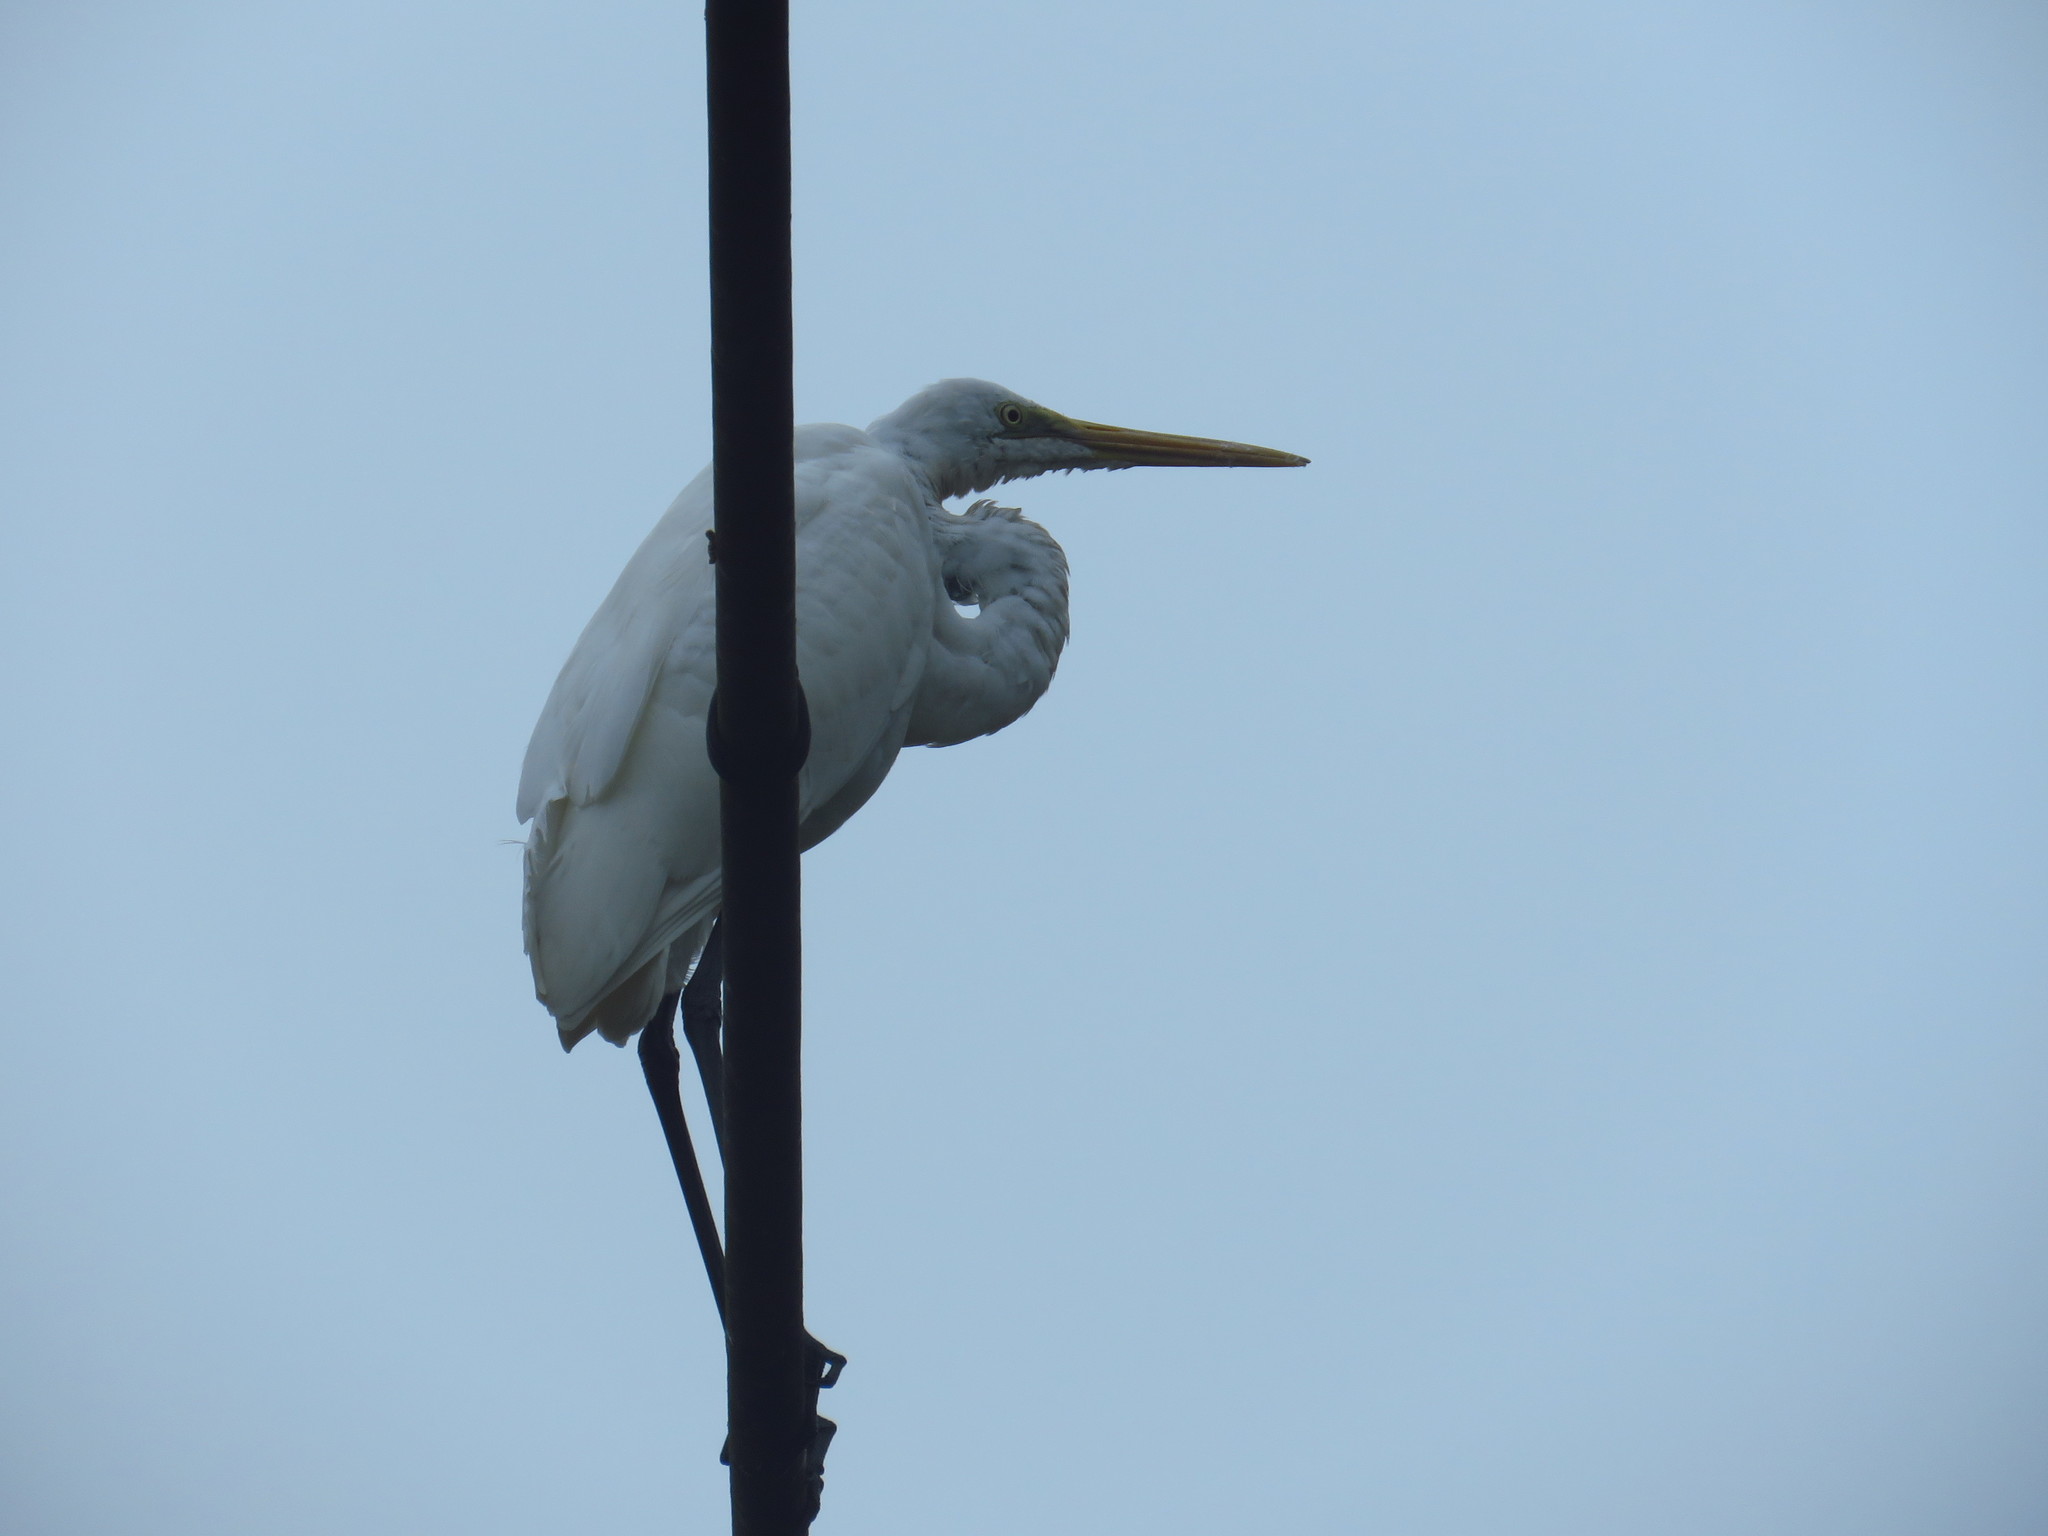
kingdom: Animalia
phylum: Chordata
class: Aves
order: Pelecaniformes
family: Ardeidae
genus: Ardea
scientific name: Ardea alba
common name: Great egret
